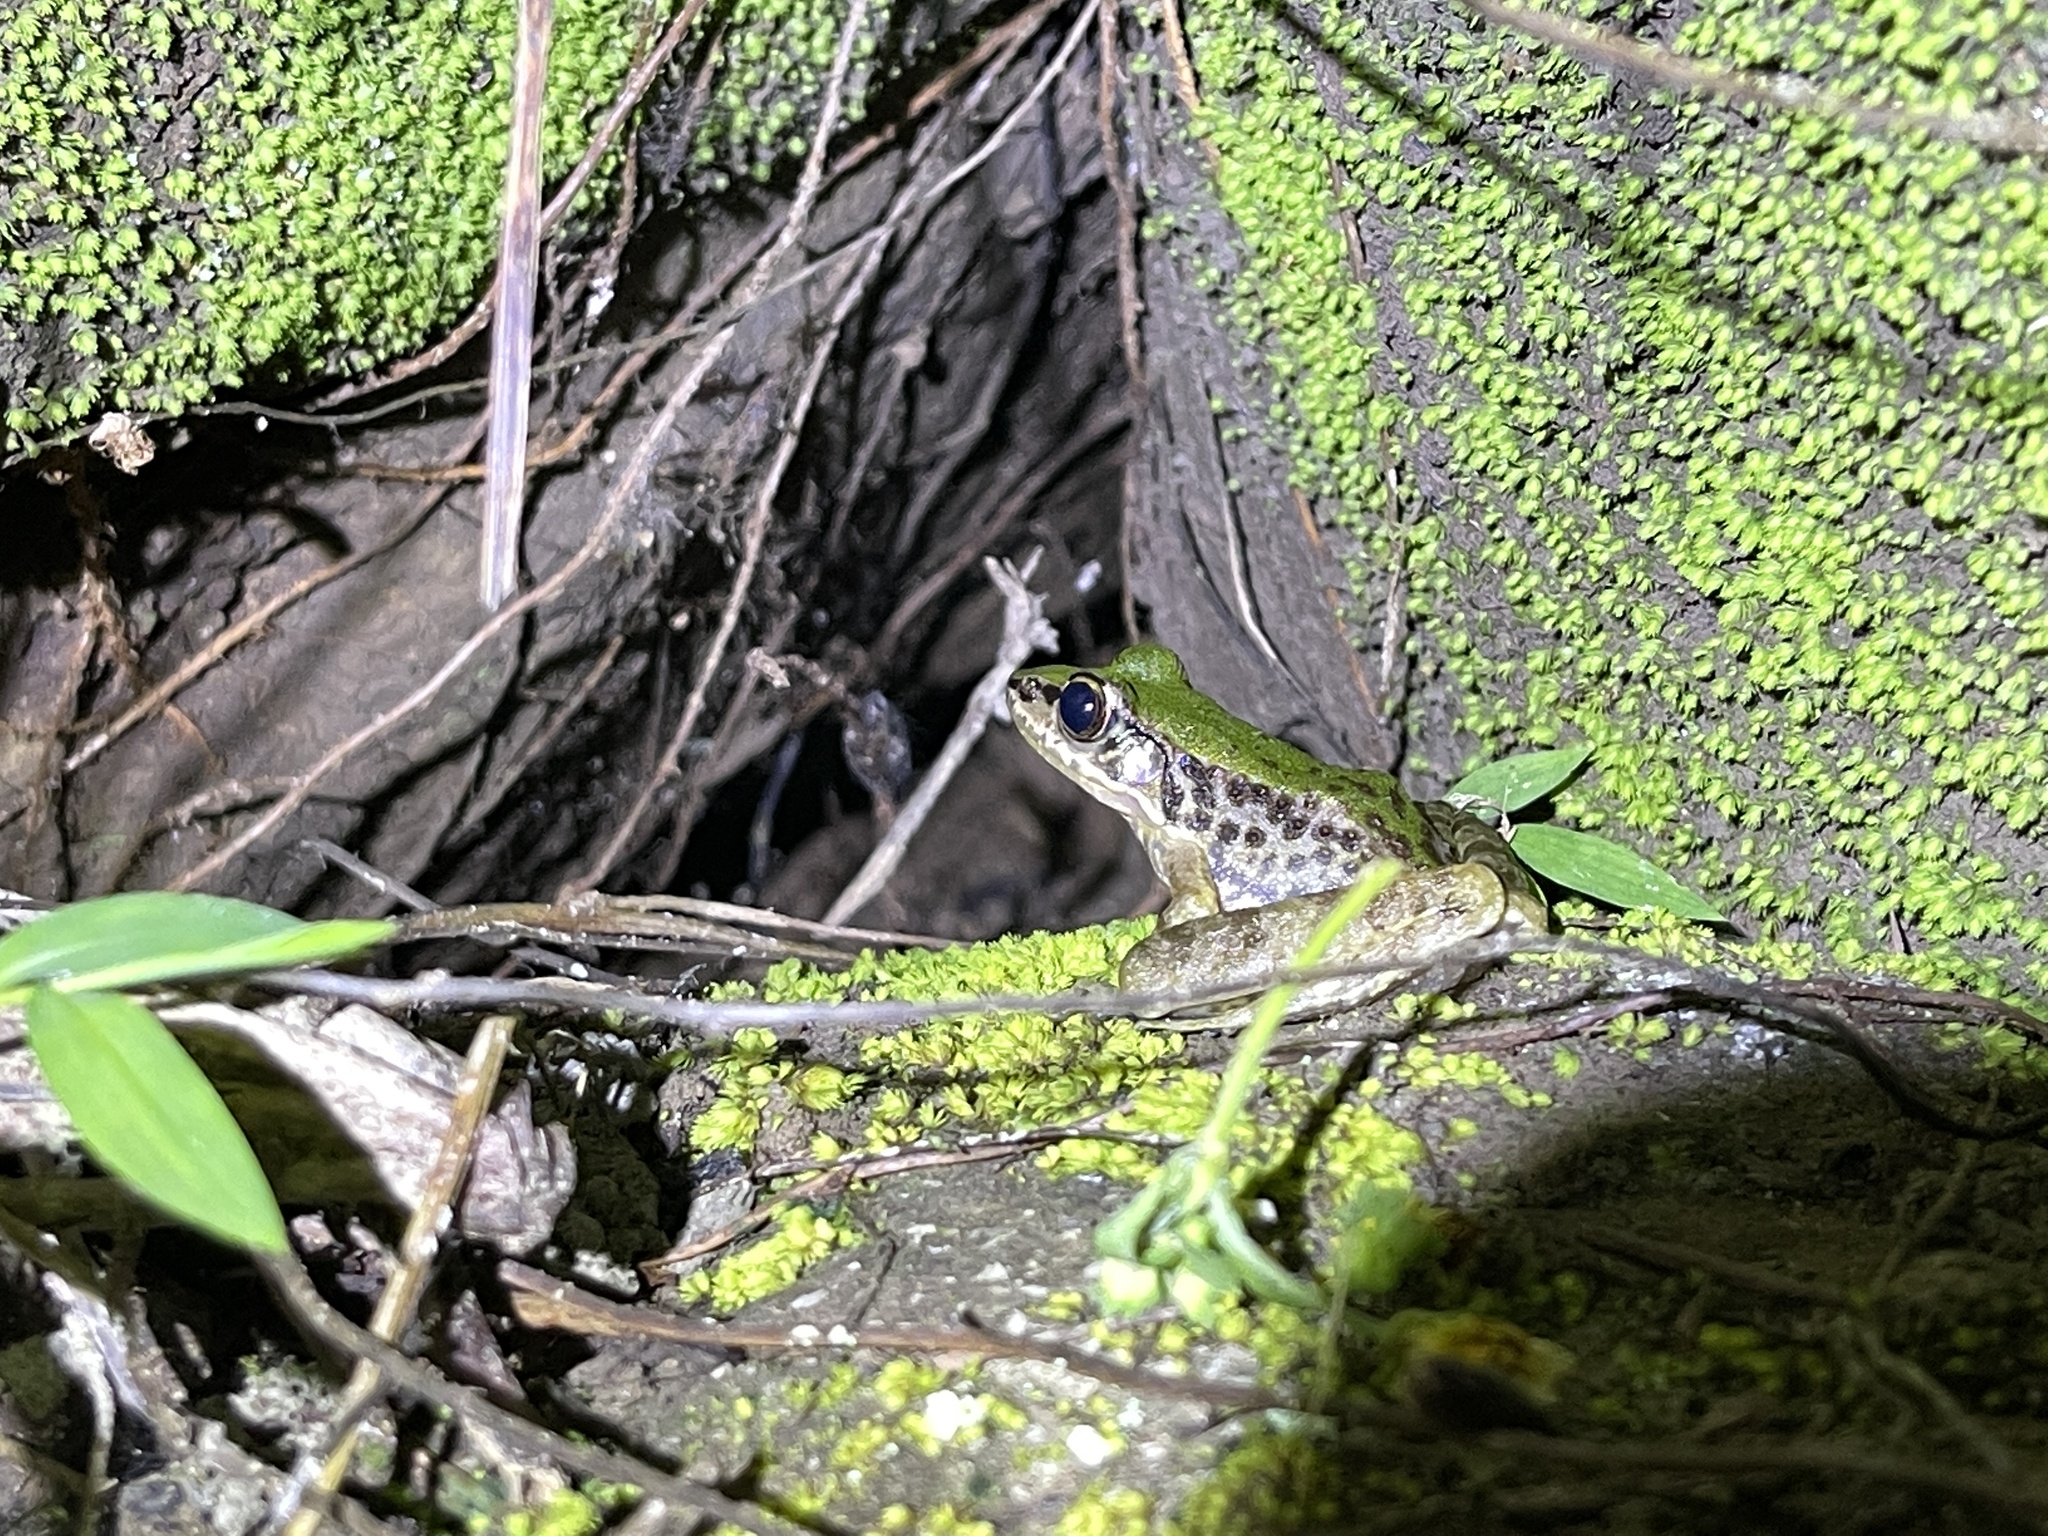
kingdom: Animalia
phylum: Chordata
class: Amphibia
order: Anura
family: Ranidae
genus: Odorrana
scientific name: Odorrana swinhoana
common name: Bangkimtsing frog
